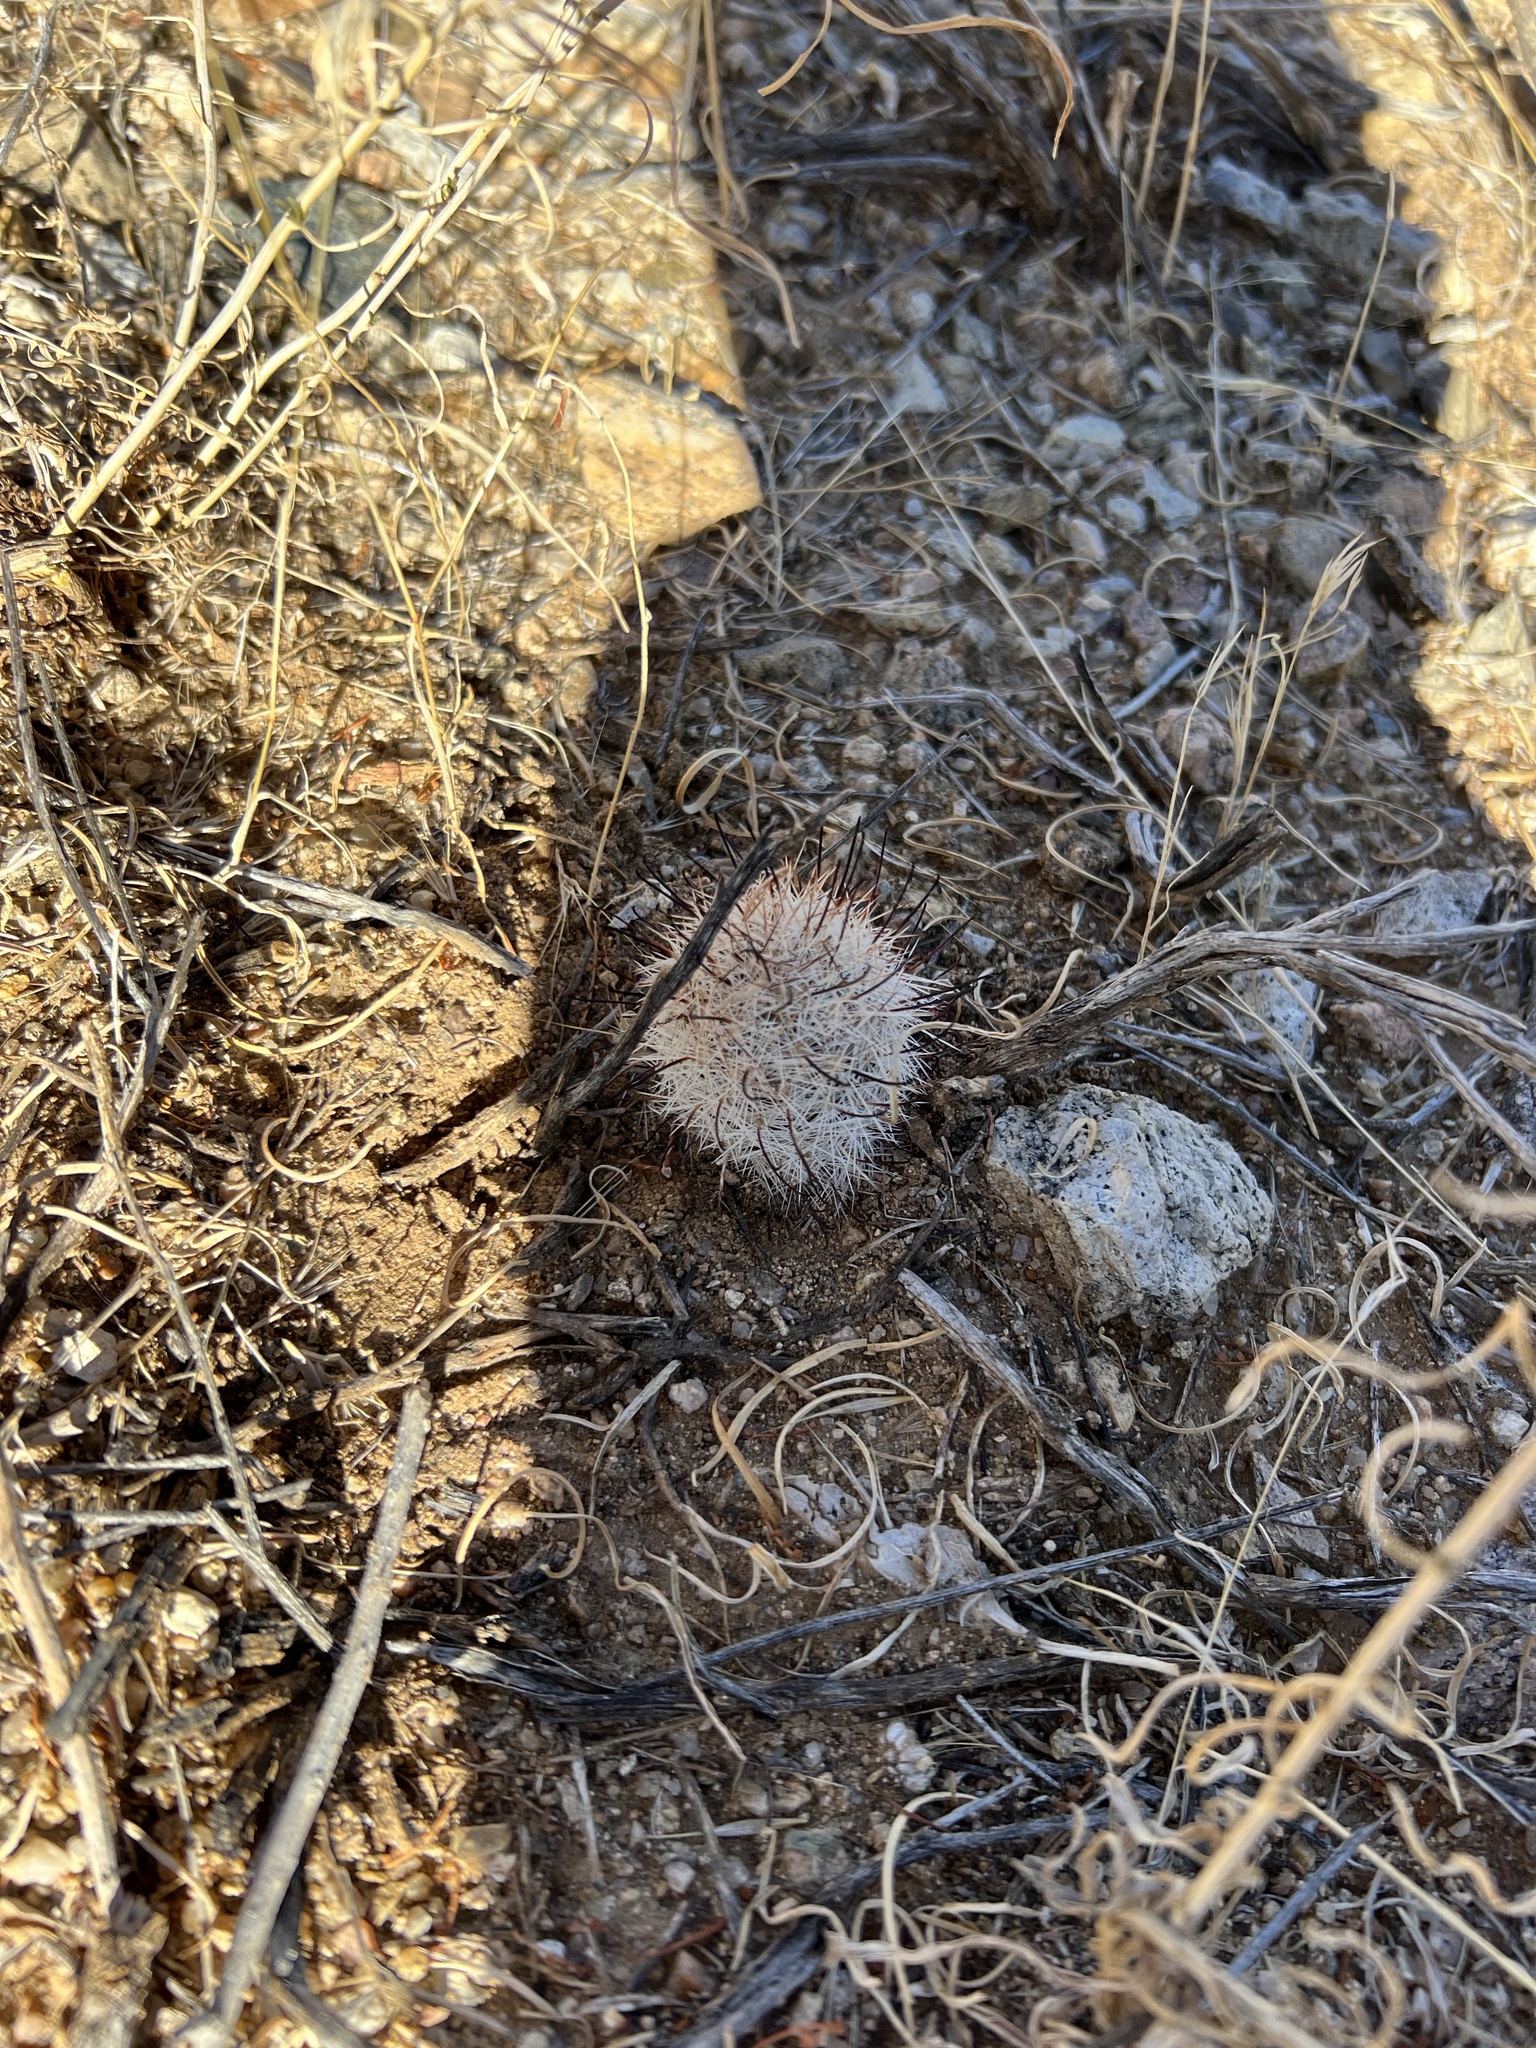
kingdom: Plantae
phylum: Tracheophyta
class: Magnoliopsida
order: Caryophyllales
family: Cactaceae
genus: Cochemiea
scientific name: Cochemiea grahamii
